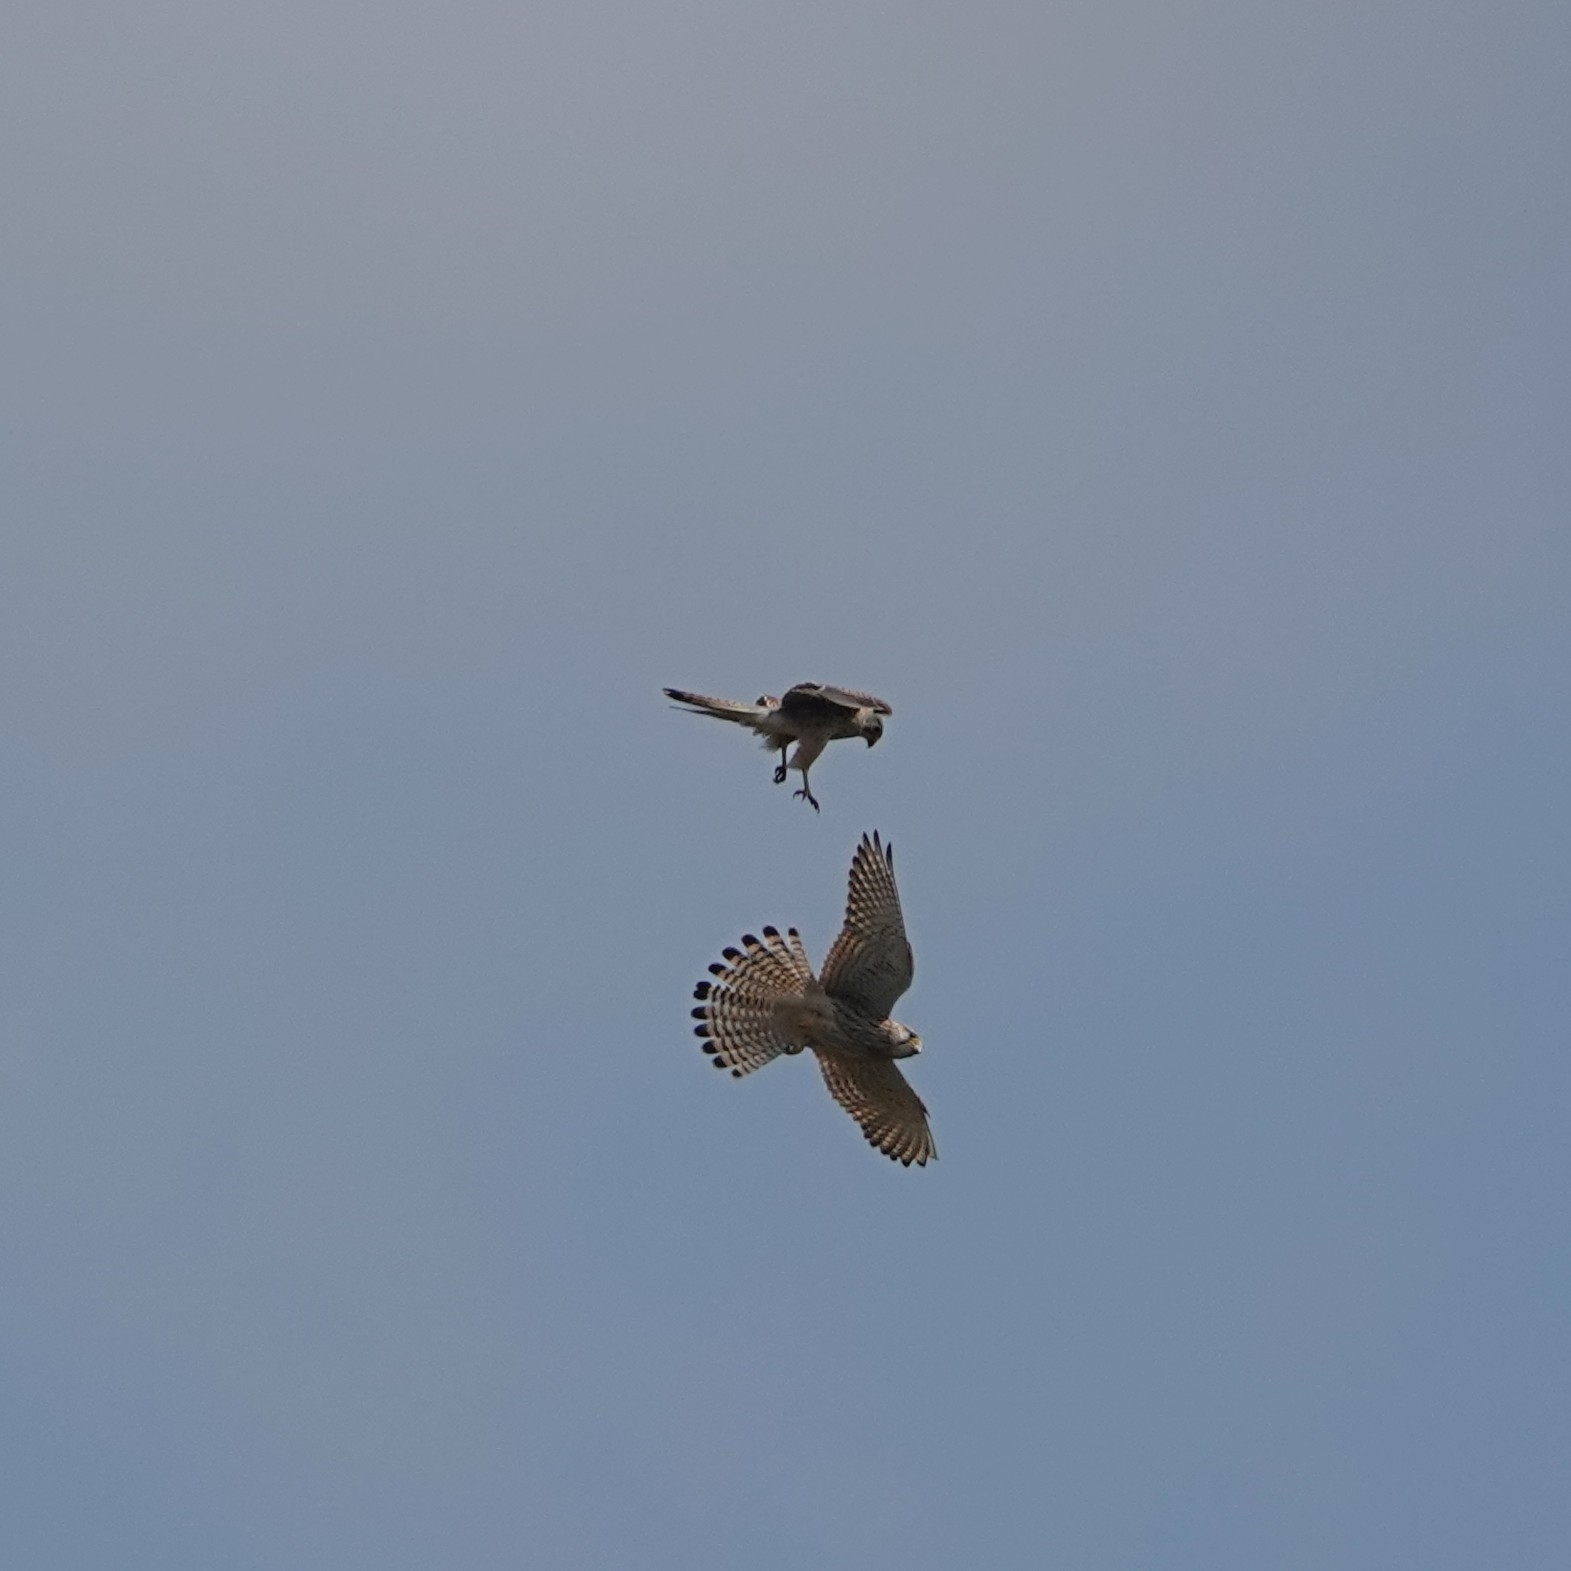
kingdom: Animalia
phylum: Chordata
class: Aves
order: Falconiformes
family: Falconidae
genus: Falco
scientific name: Falco tinnunculus
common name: Common kestrel
